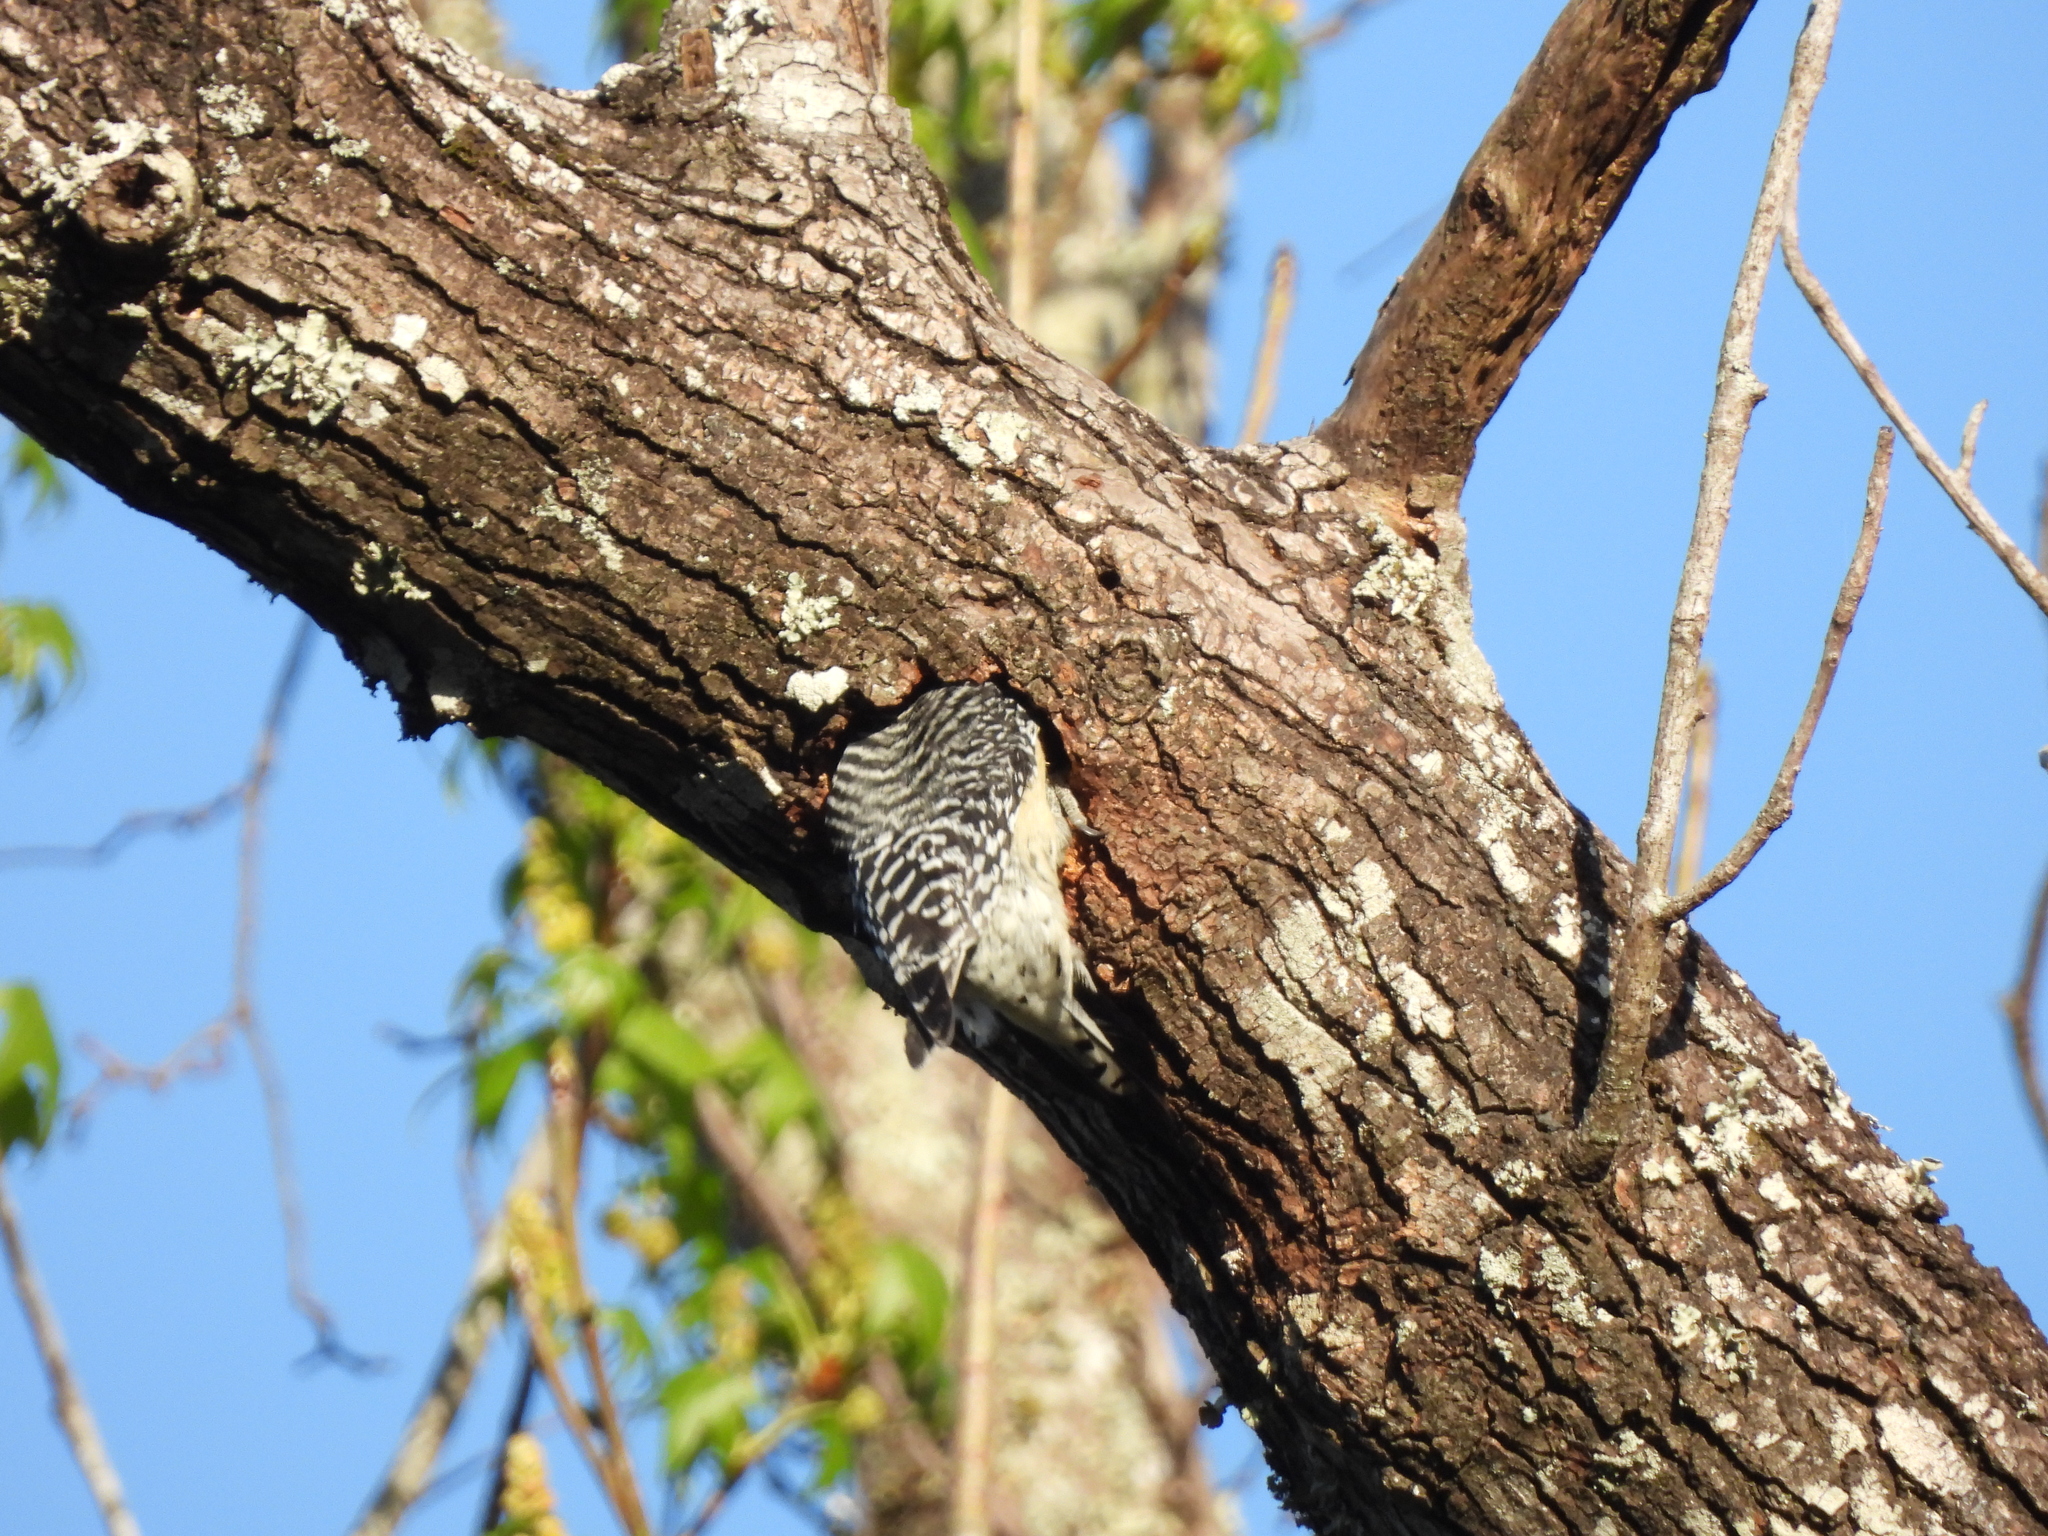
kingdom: Animalia
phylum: Chordata
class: Aves
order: Piciformes
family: Picidae
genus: Melanerpes
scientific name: Melanerpes carolinus
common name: Red-bellied woodpecker
